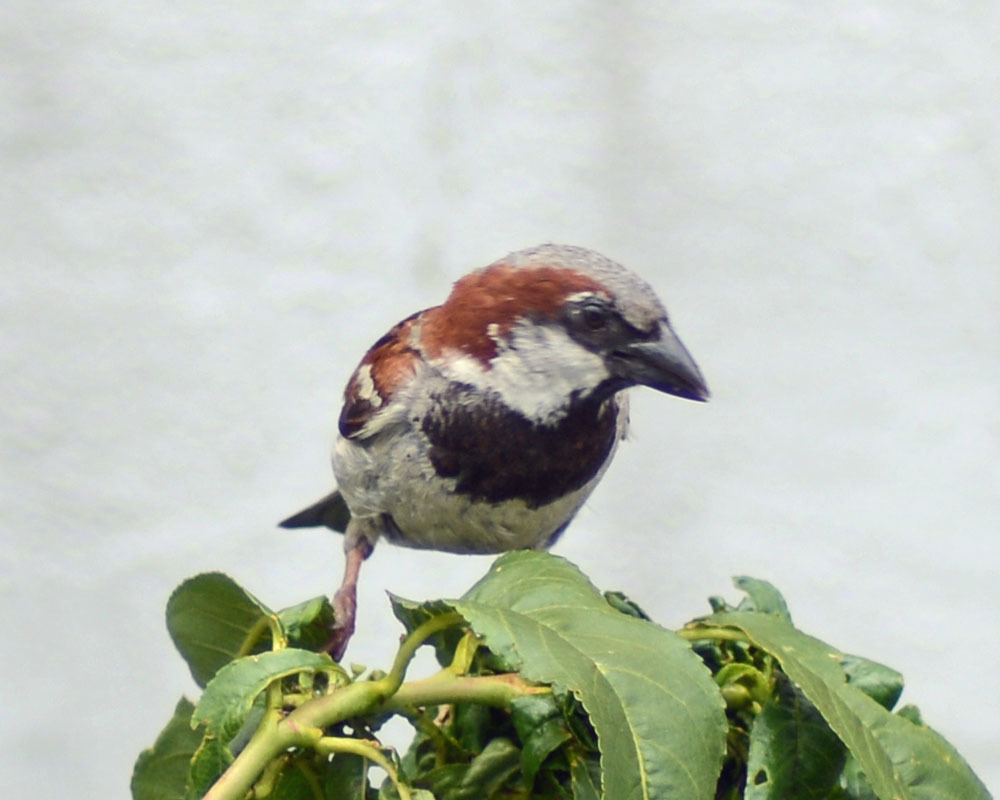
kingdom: Animalia
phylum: Chordata
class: Aves
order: Passeriformes
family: Passeridae
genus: Passer
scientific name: Passer domesticus
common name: House sparrow
